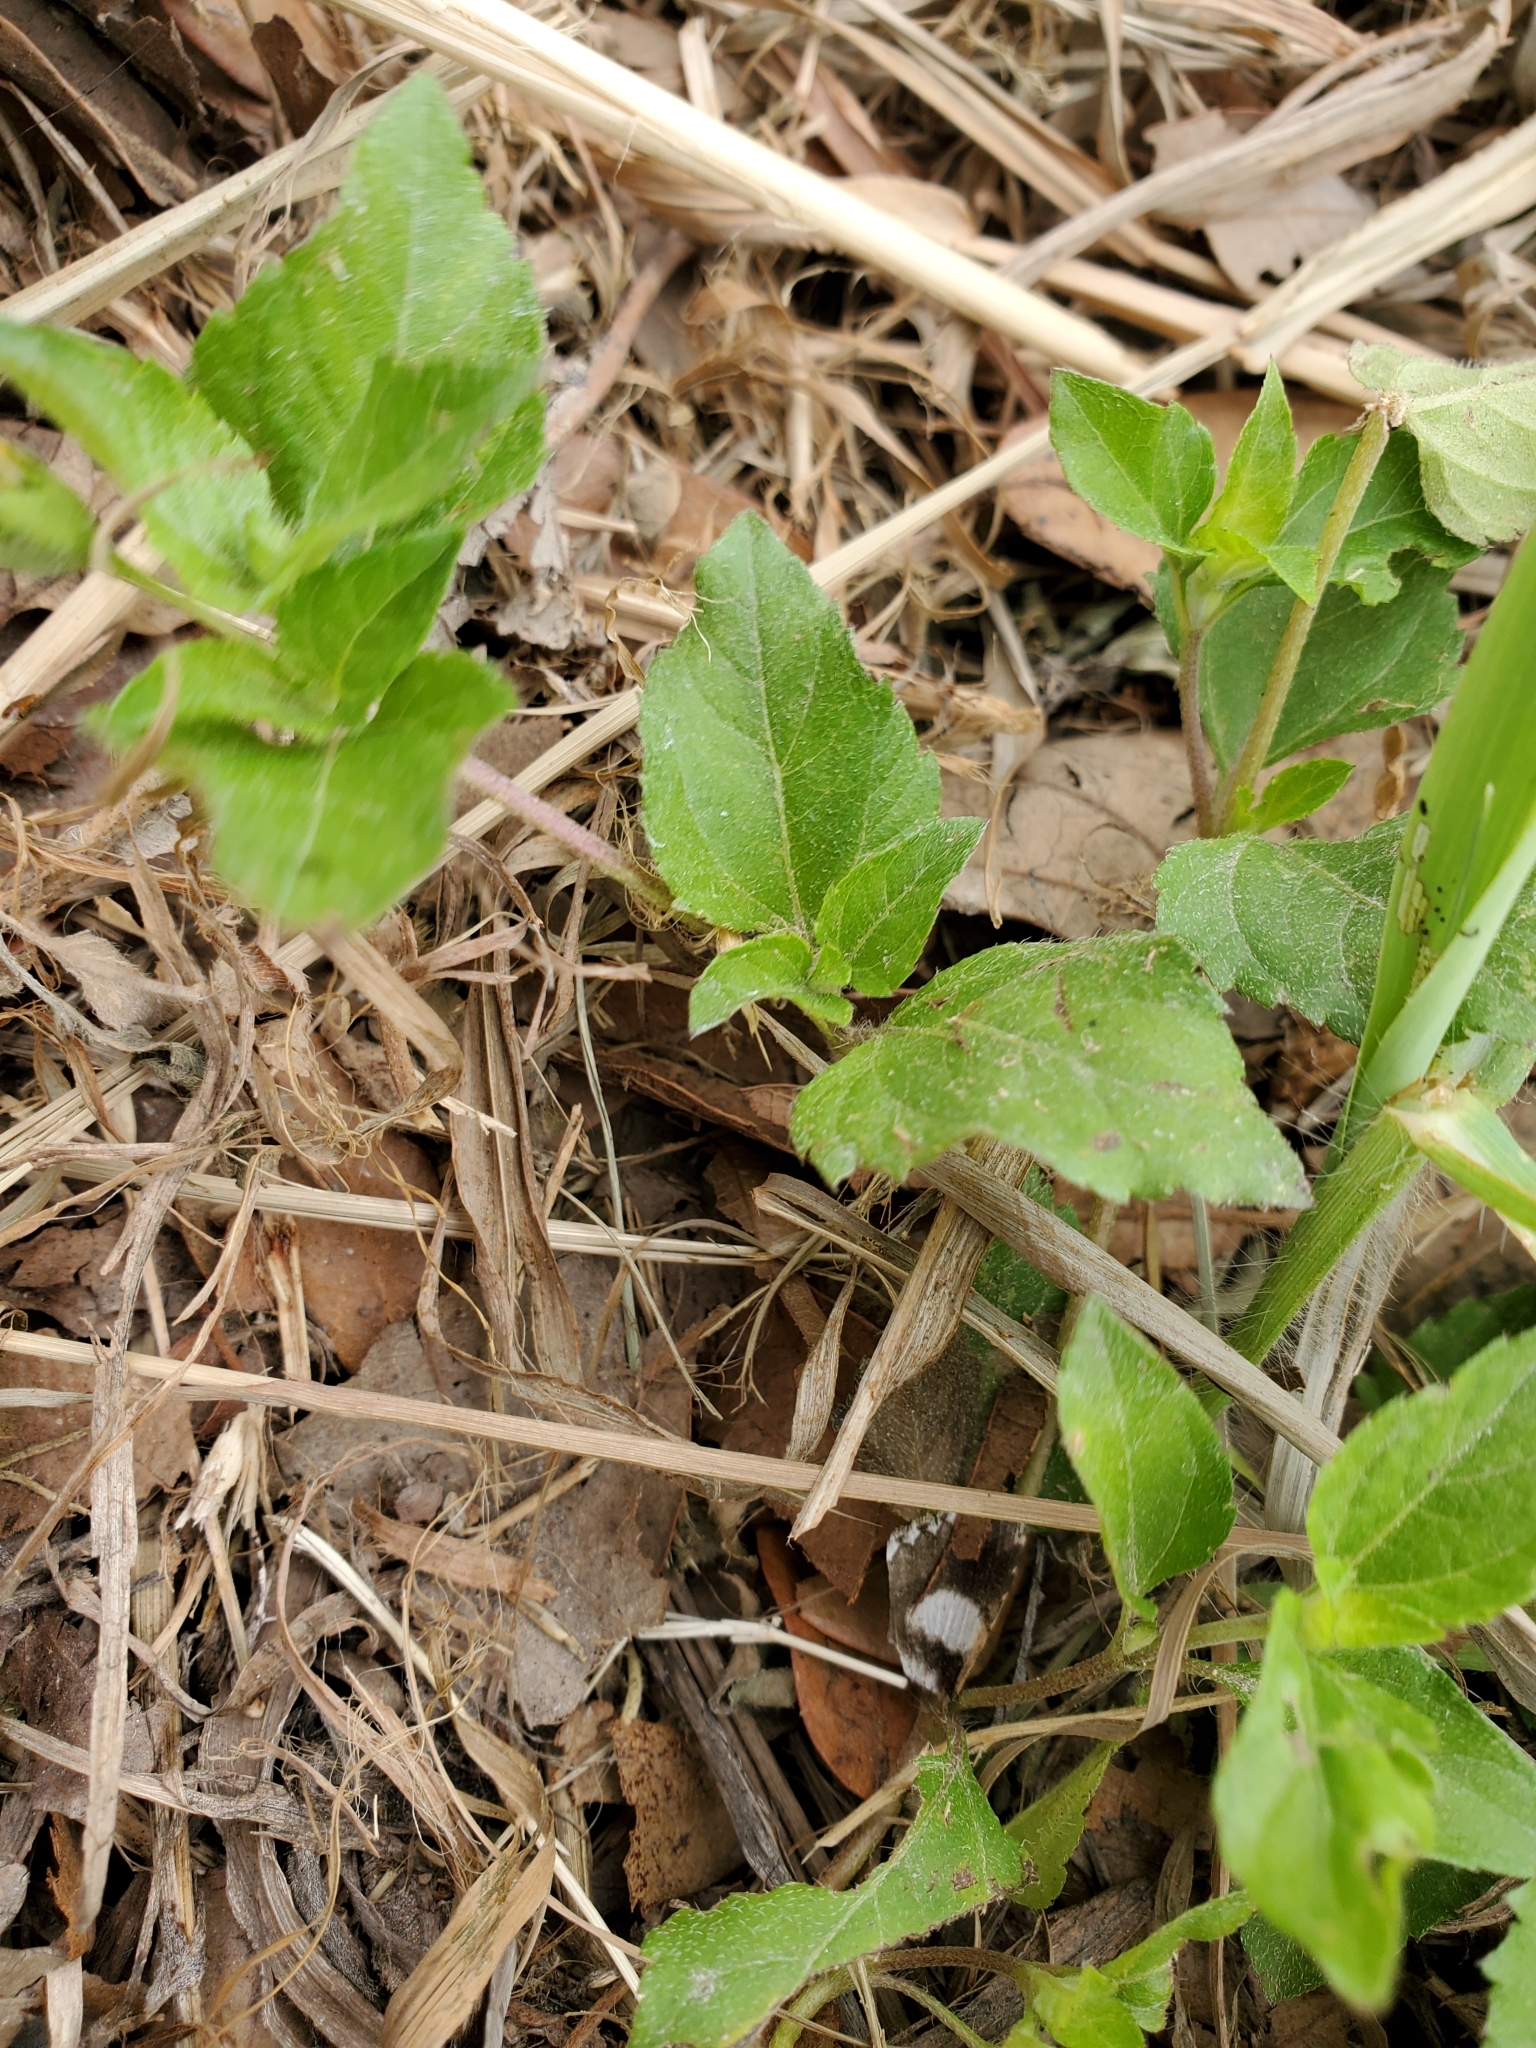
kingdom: Plantae
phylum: Tracheophyta
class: Magnoliopsida
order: Asterales
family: Asteraceae
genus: Calyptocarpus
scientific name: Calyptocarpus vialis
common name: Straggler daisy
